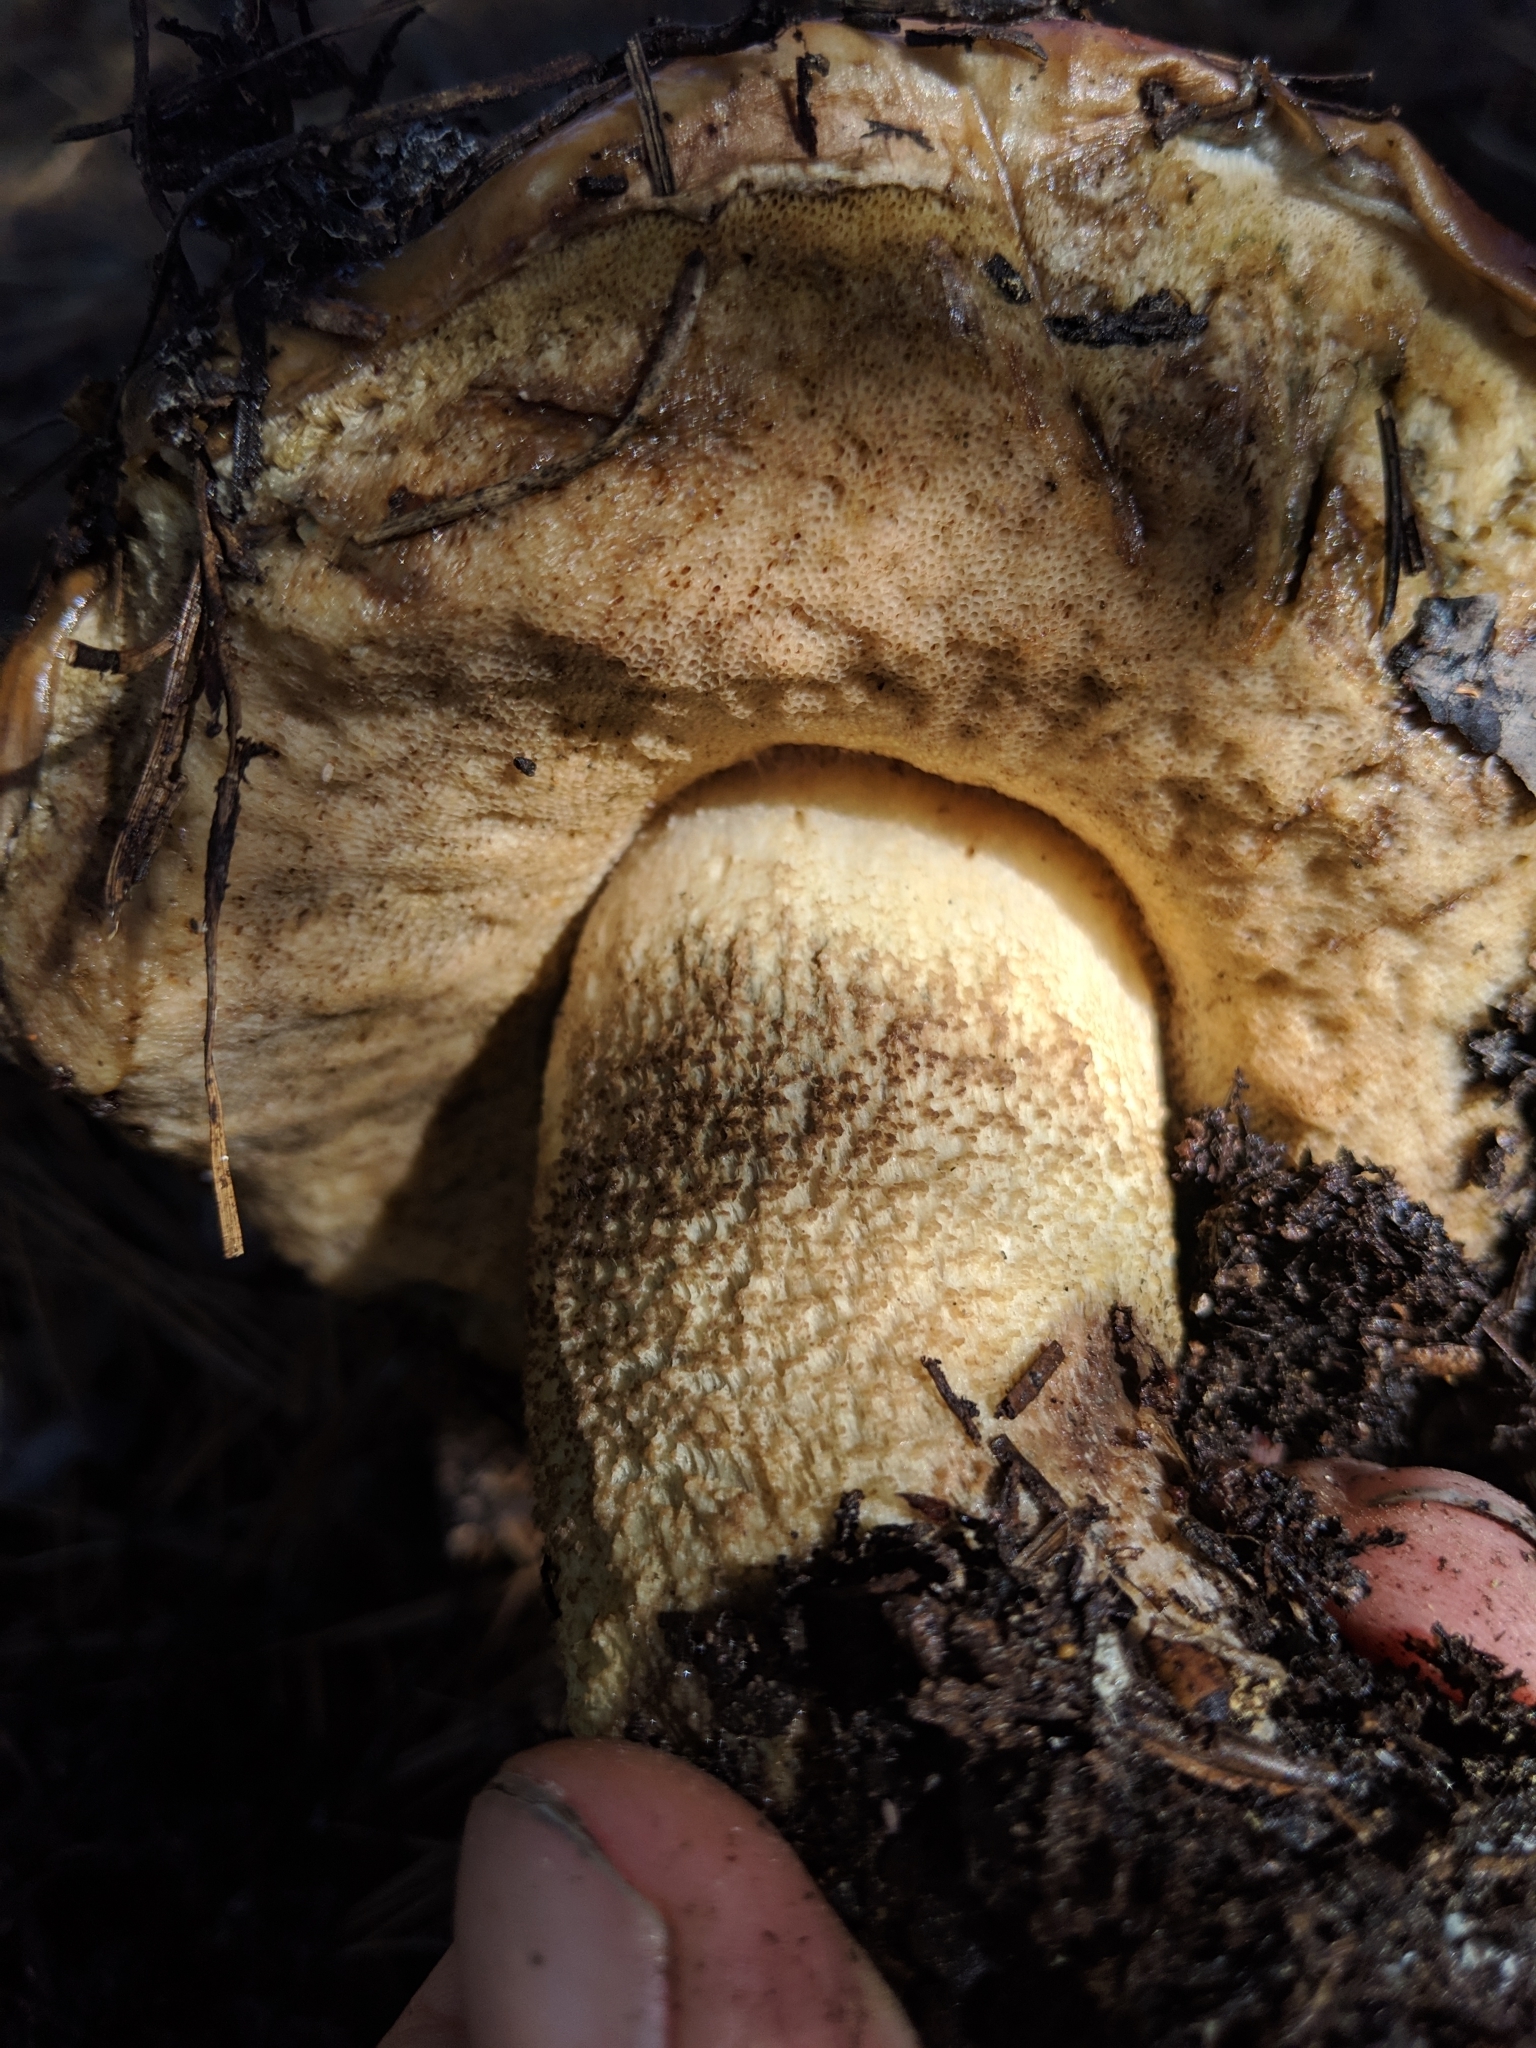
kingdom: Fungi
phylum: Basidiomycota
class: Agaricomycetes
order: Boletales
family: Boletaceae
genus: Leccinum
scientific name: Leccinum manzanitae
